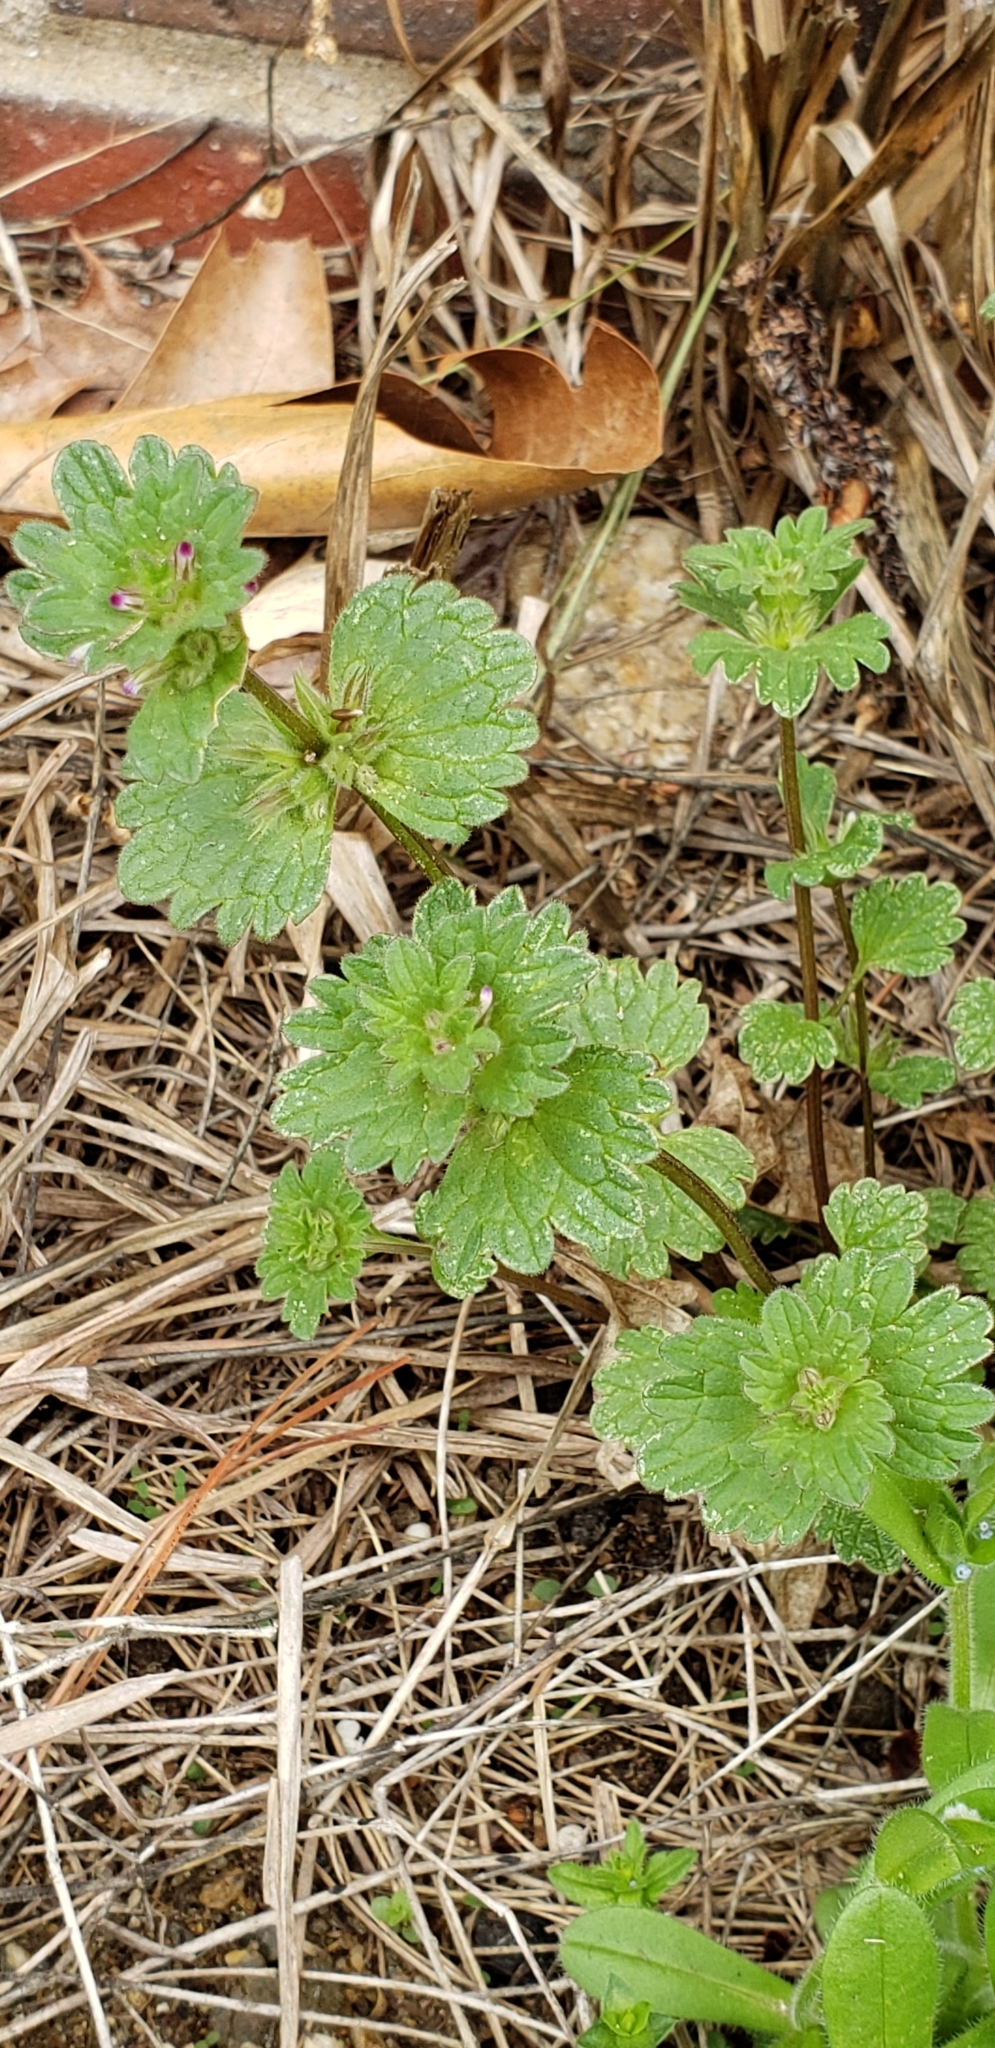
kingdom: Plantae
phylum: Tracheophyta
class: Magnoliopsida
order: Lamiales
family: Lamiaceae
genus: Lamium
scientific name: Lamium amplexicaule
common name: Henbit dead-nettle
